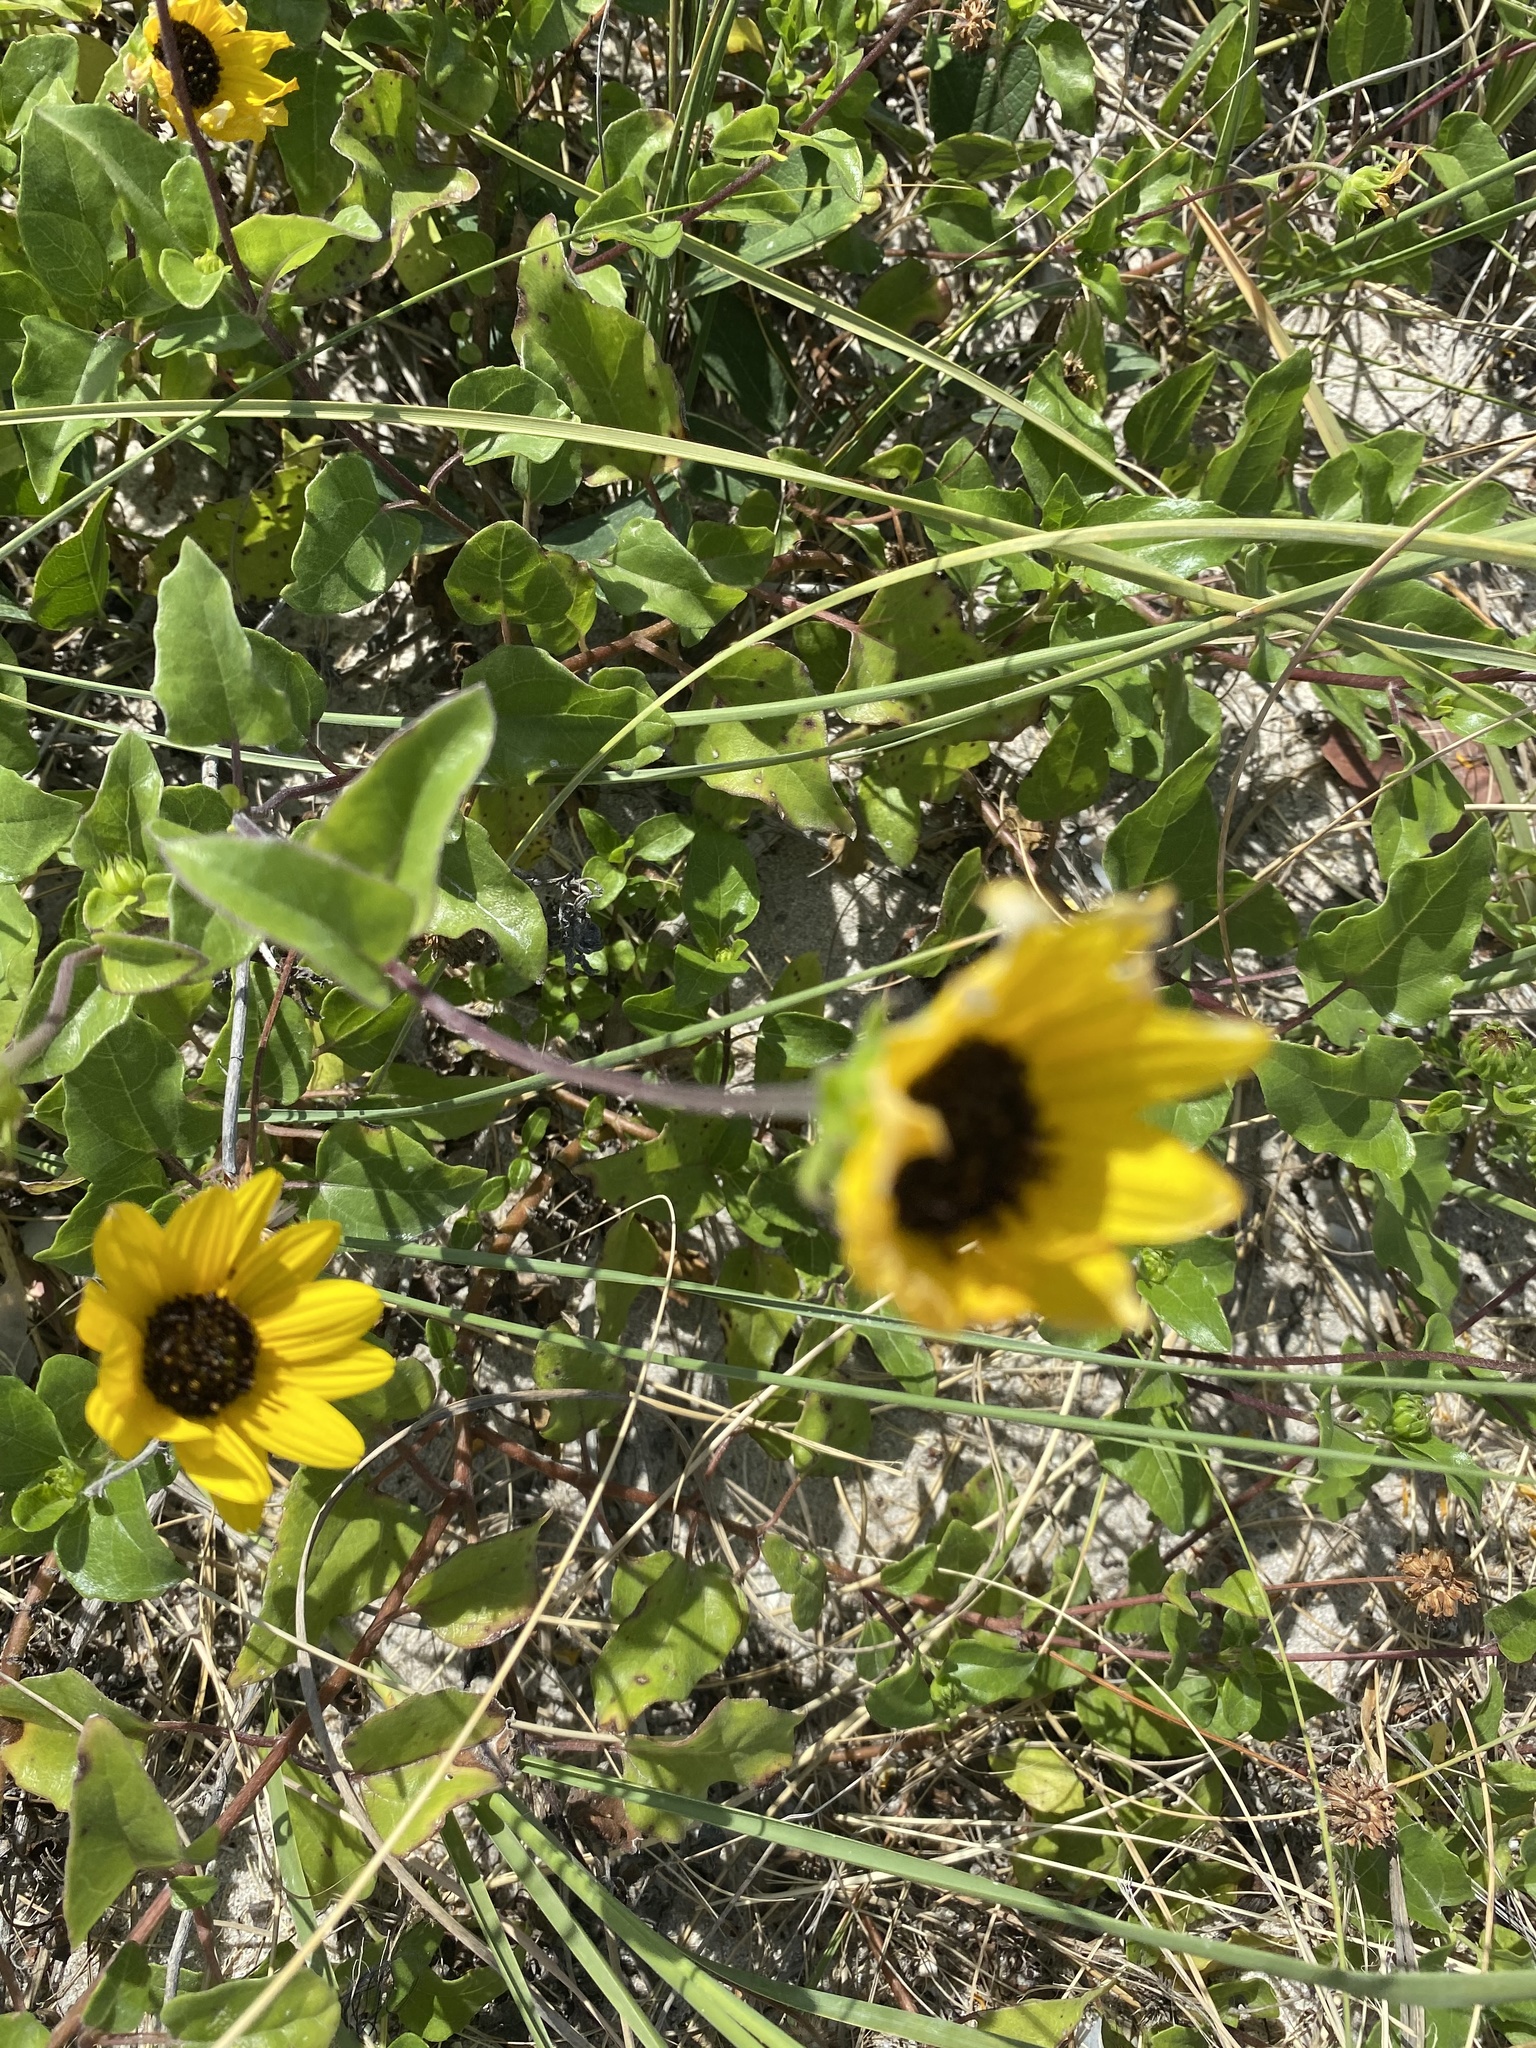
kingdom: Plantae
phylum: Tracheophyta
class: Magnoliopsida
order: Asterales
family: Asteraceae
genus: Helianthus
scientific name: Helianthus debilis
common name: Weak sunflower
